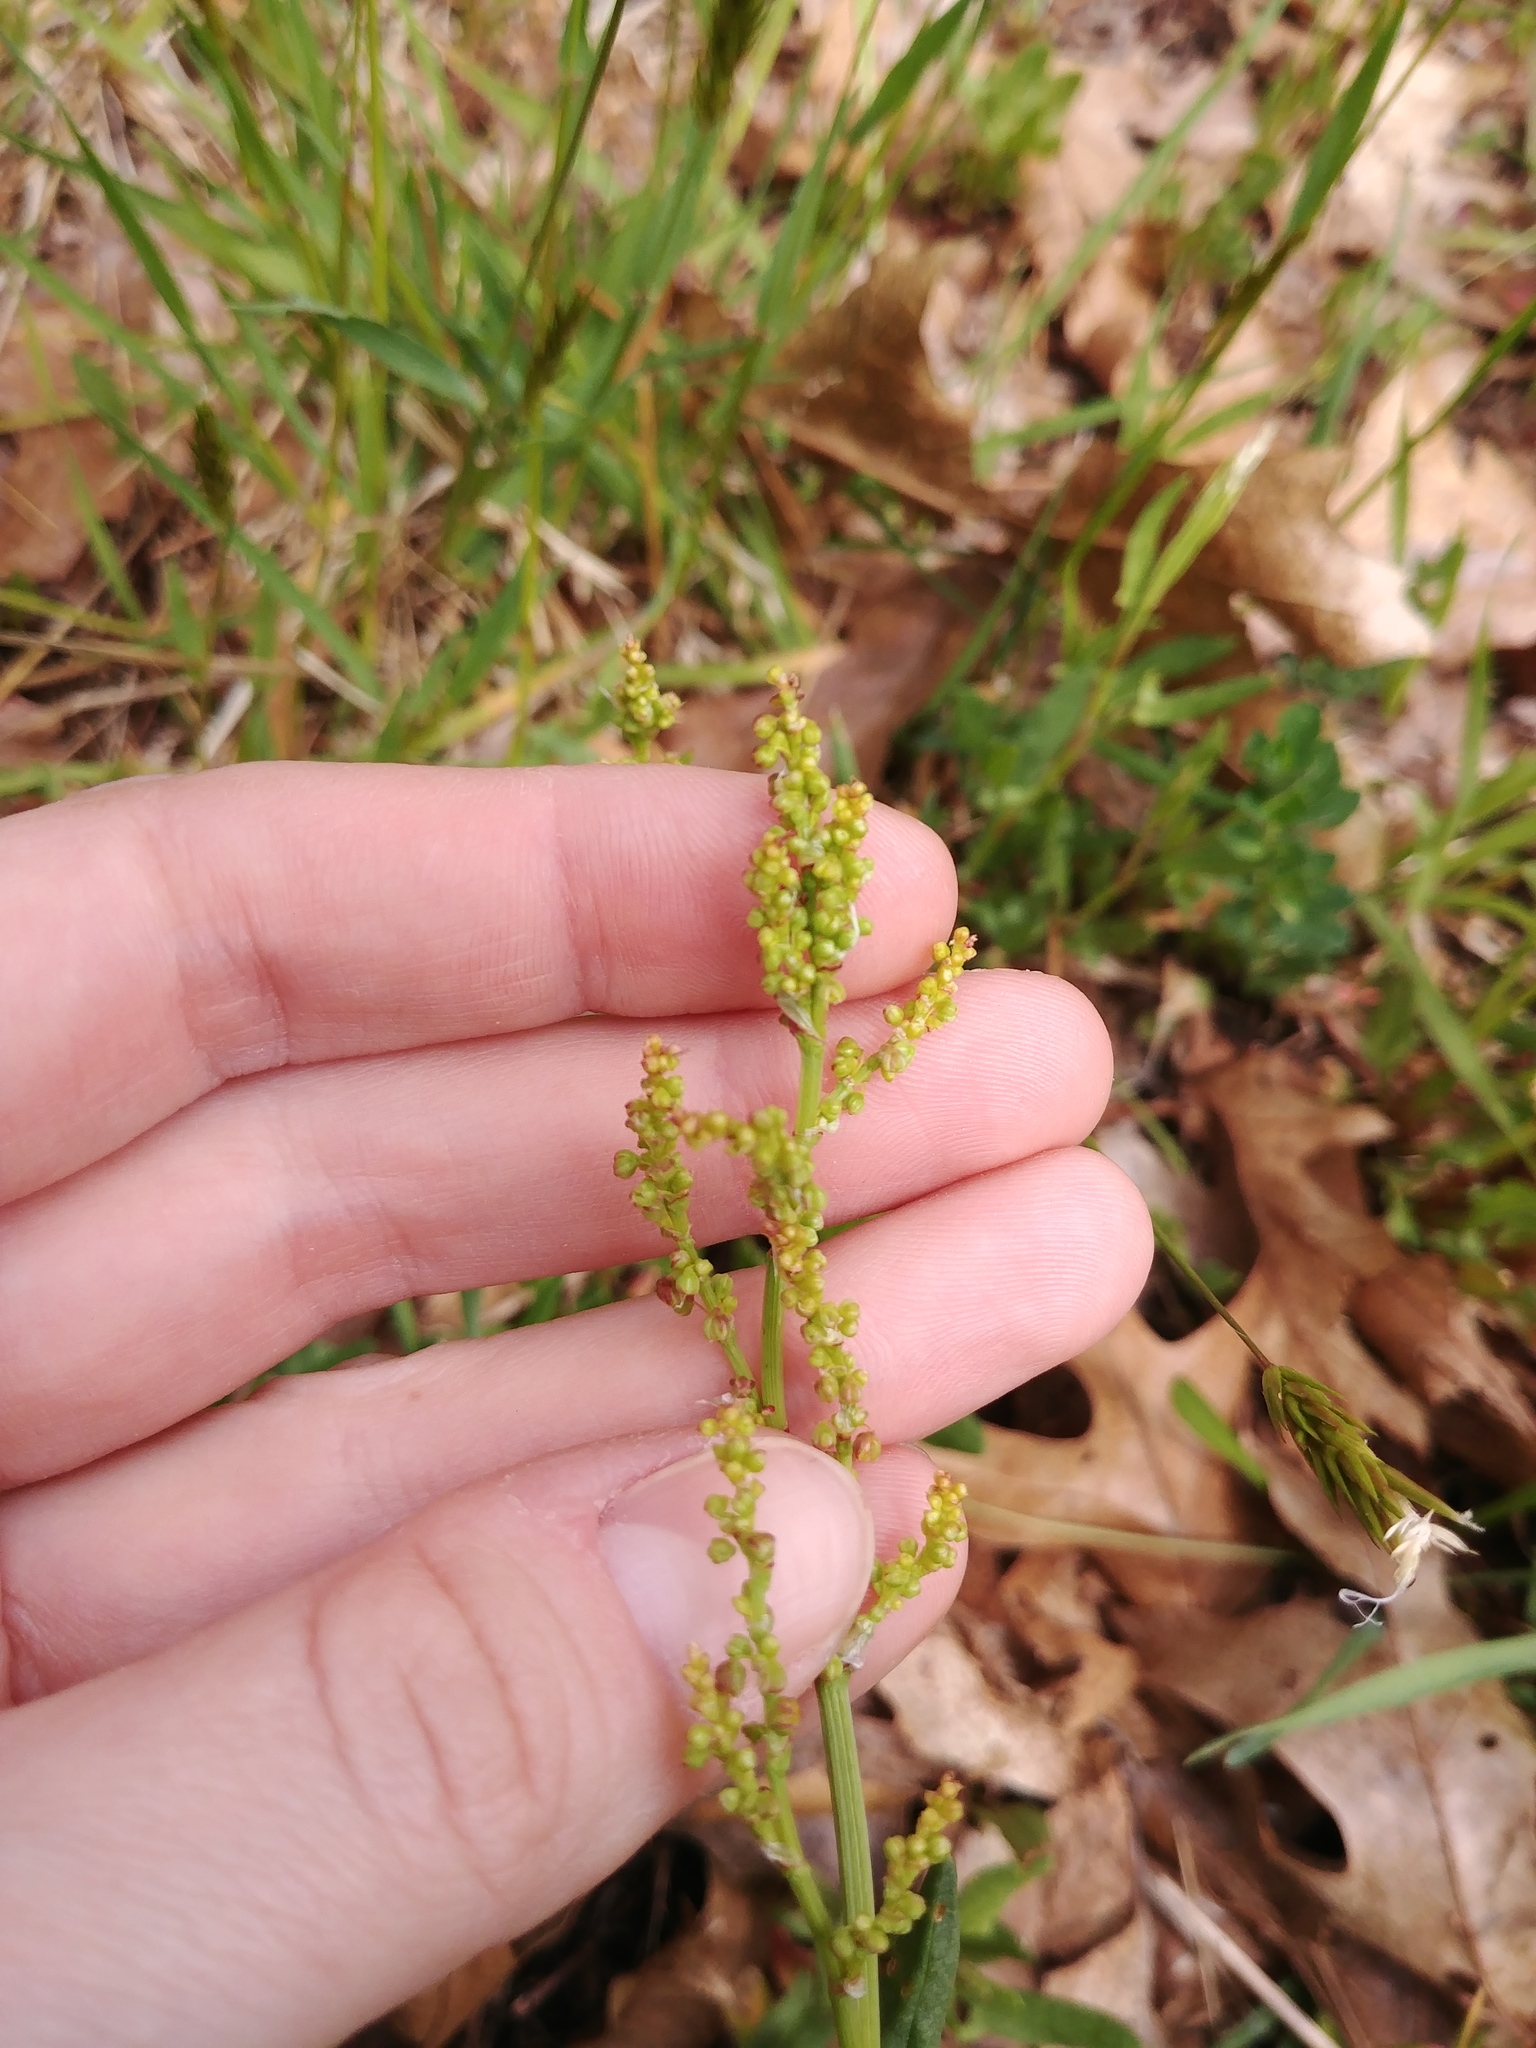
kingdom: Plantae
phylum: Tracheophyta
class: Magnoliopsida
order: Caryophyllales
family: Polygonaceae
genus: Rumex
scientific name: Rumex acetosella
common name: Common sheep sorrel
